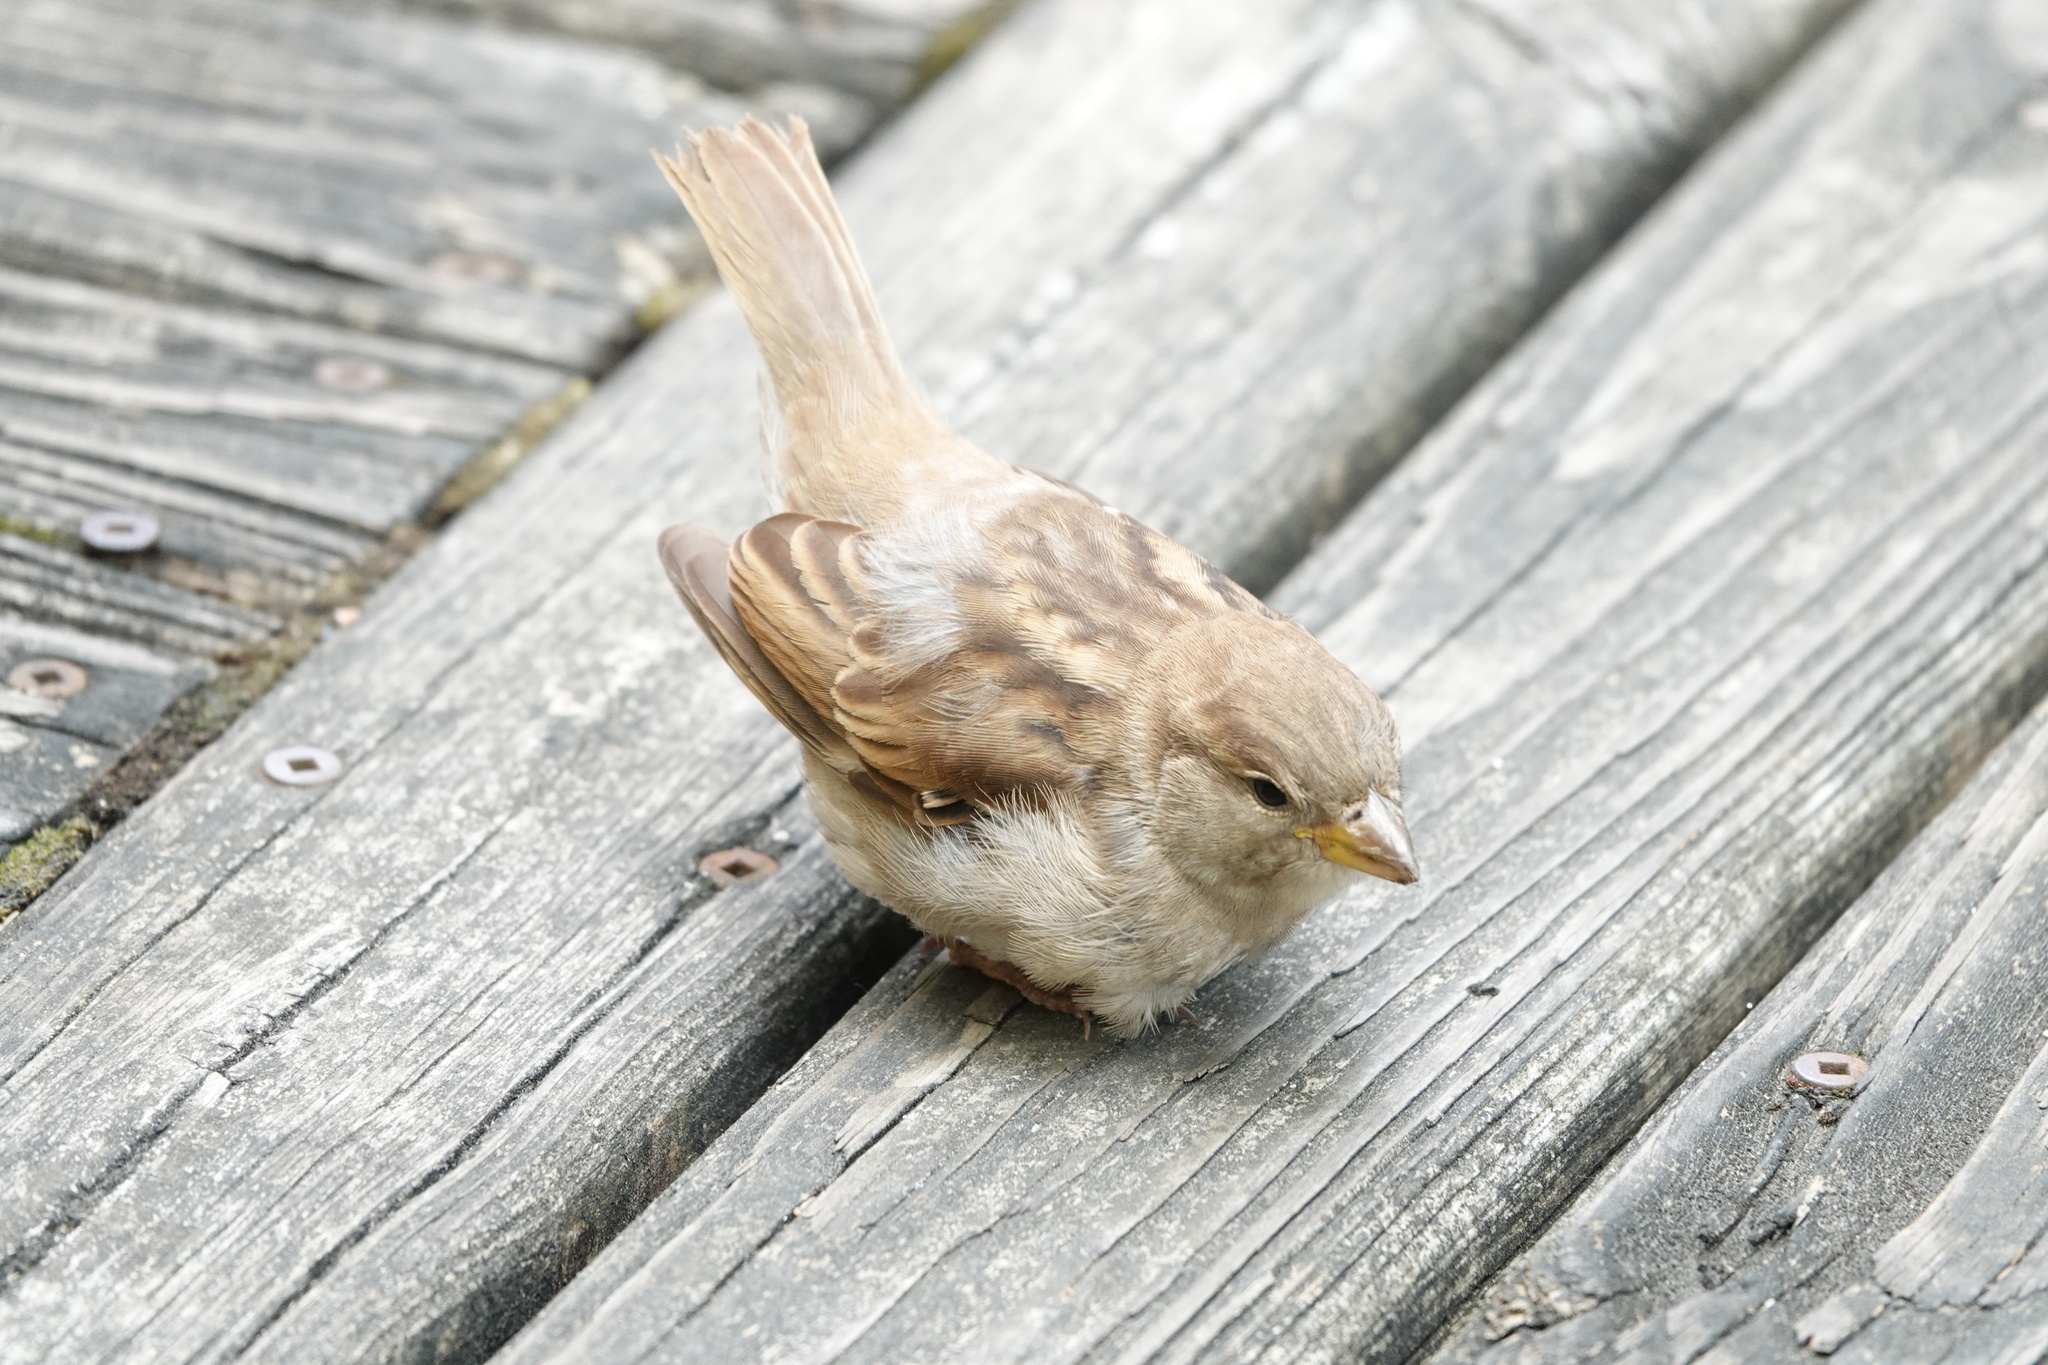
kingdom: Animalia
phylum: Chordata
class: Aves
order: Passeriformes
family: Passeridae
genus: Passer
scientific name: Passer domesticus
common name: House sparrow
